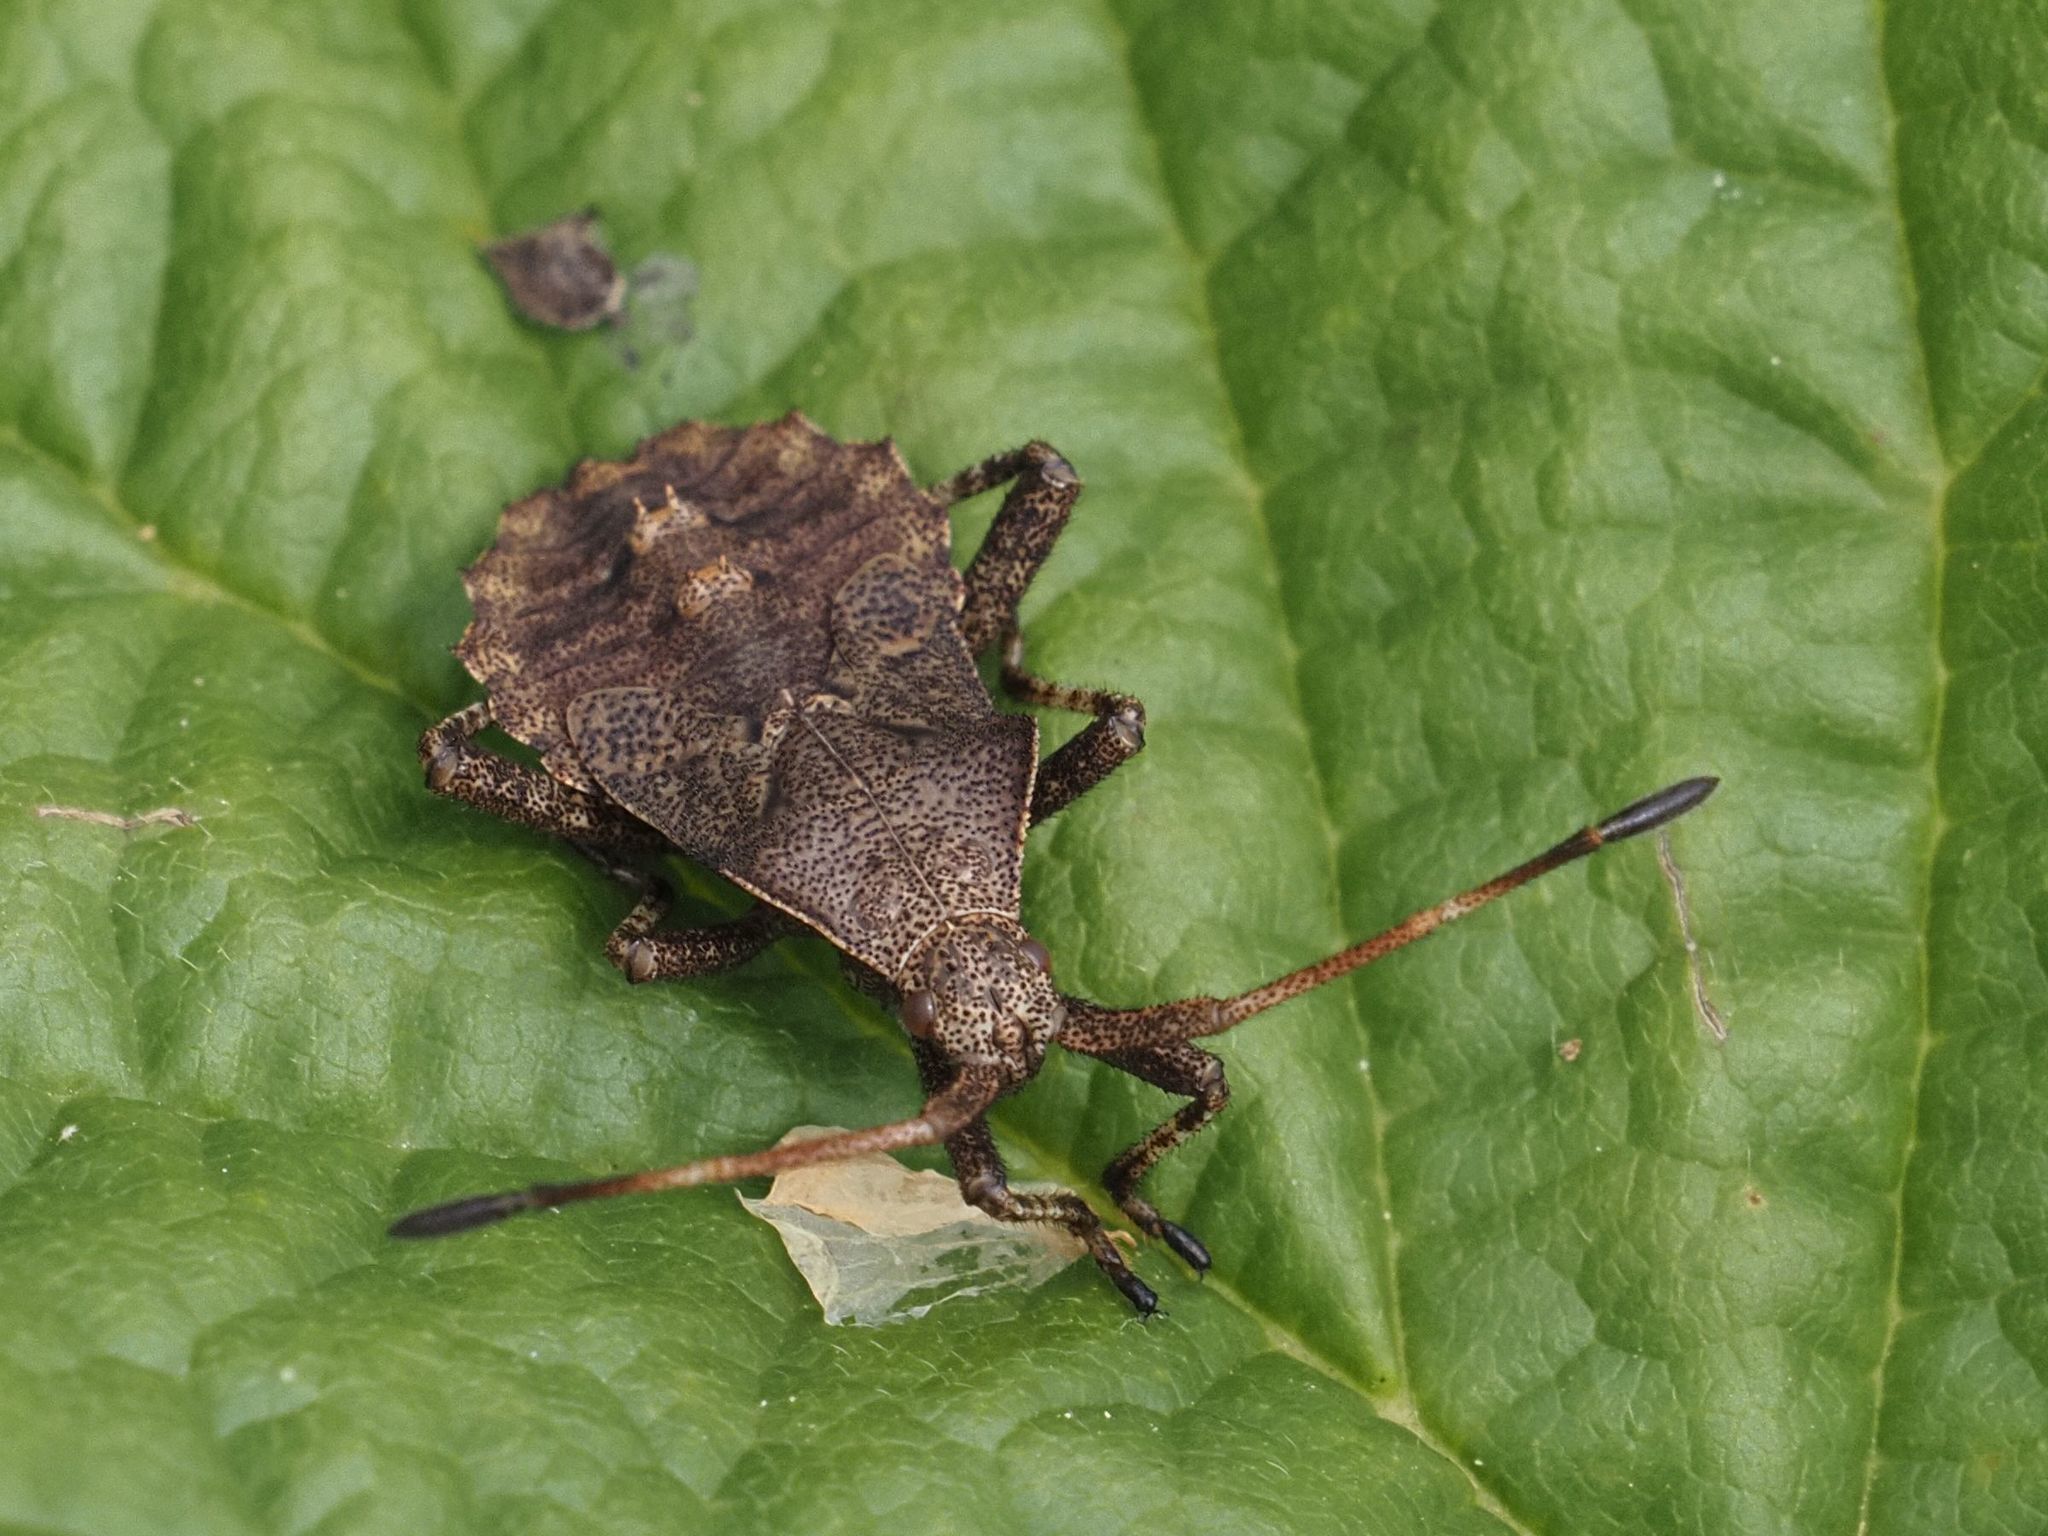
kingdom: Animalia
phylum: Arthropoda
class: Insecta
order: Hemiptera
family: Coreidae
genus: Coreus
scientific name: Coreus marginatus
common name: Dock bug
